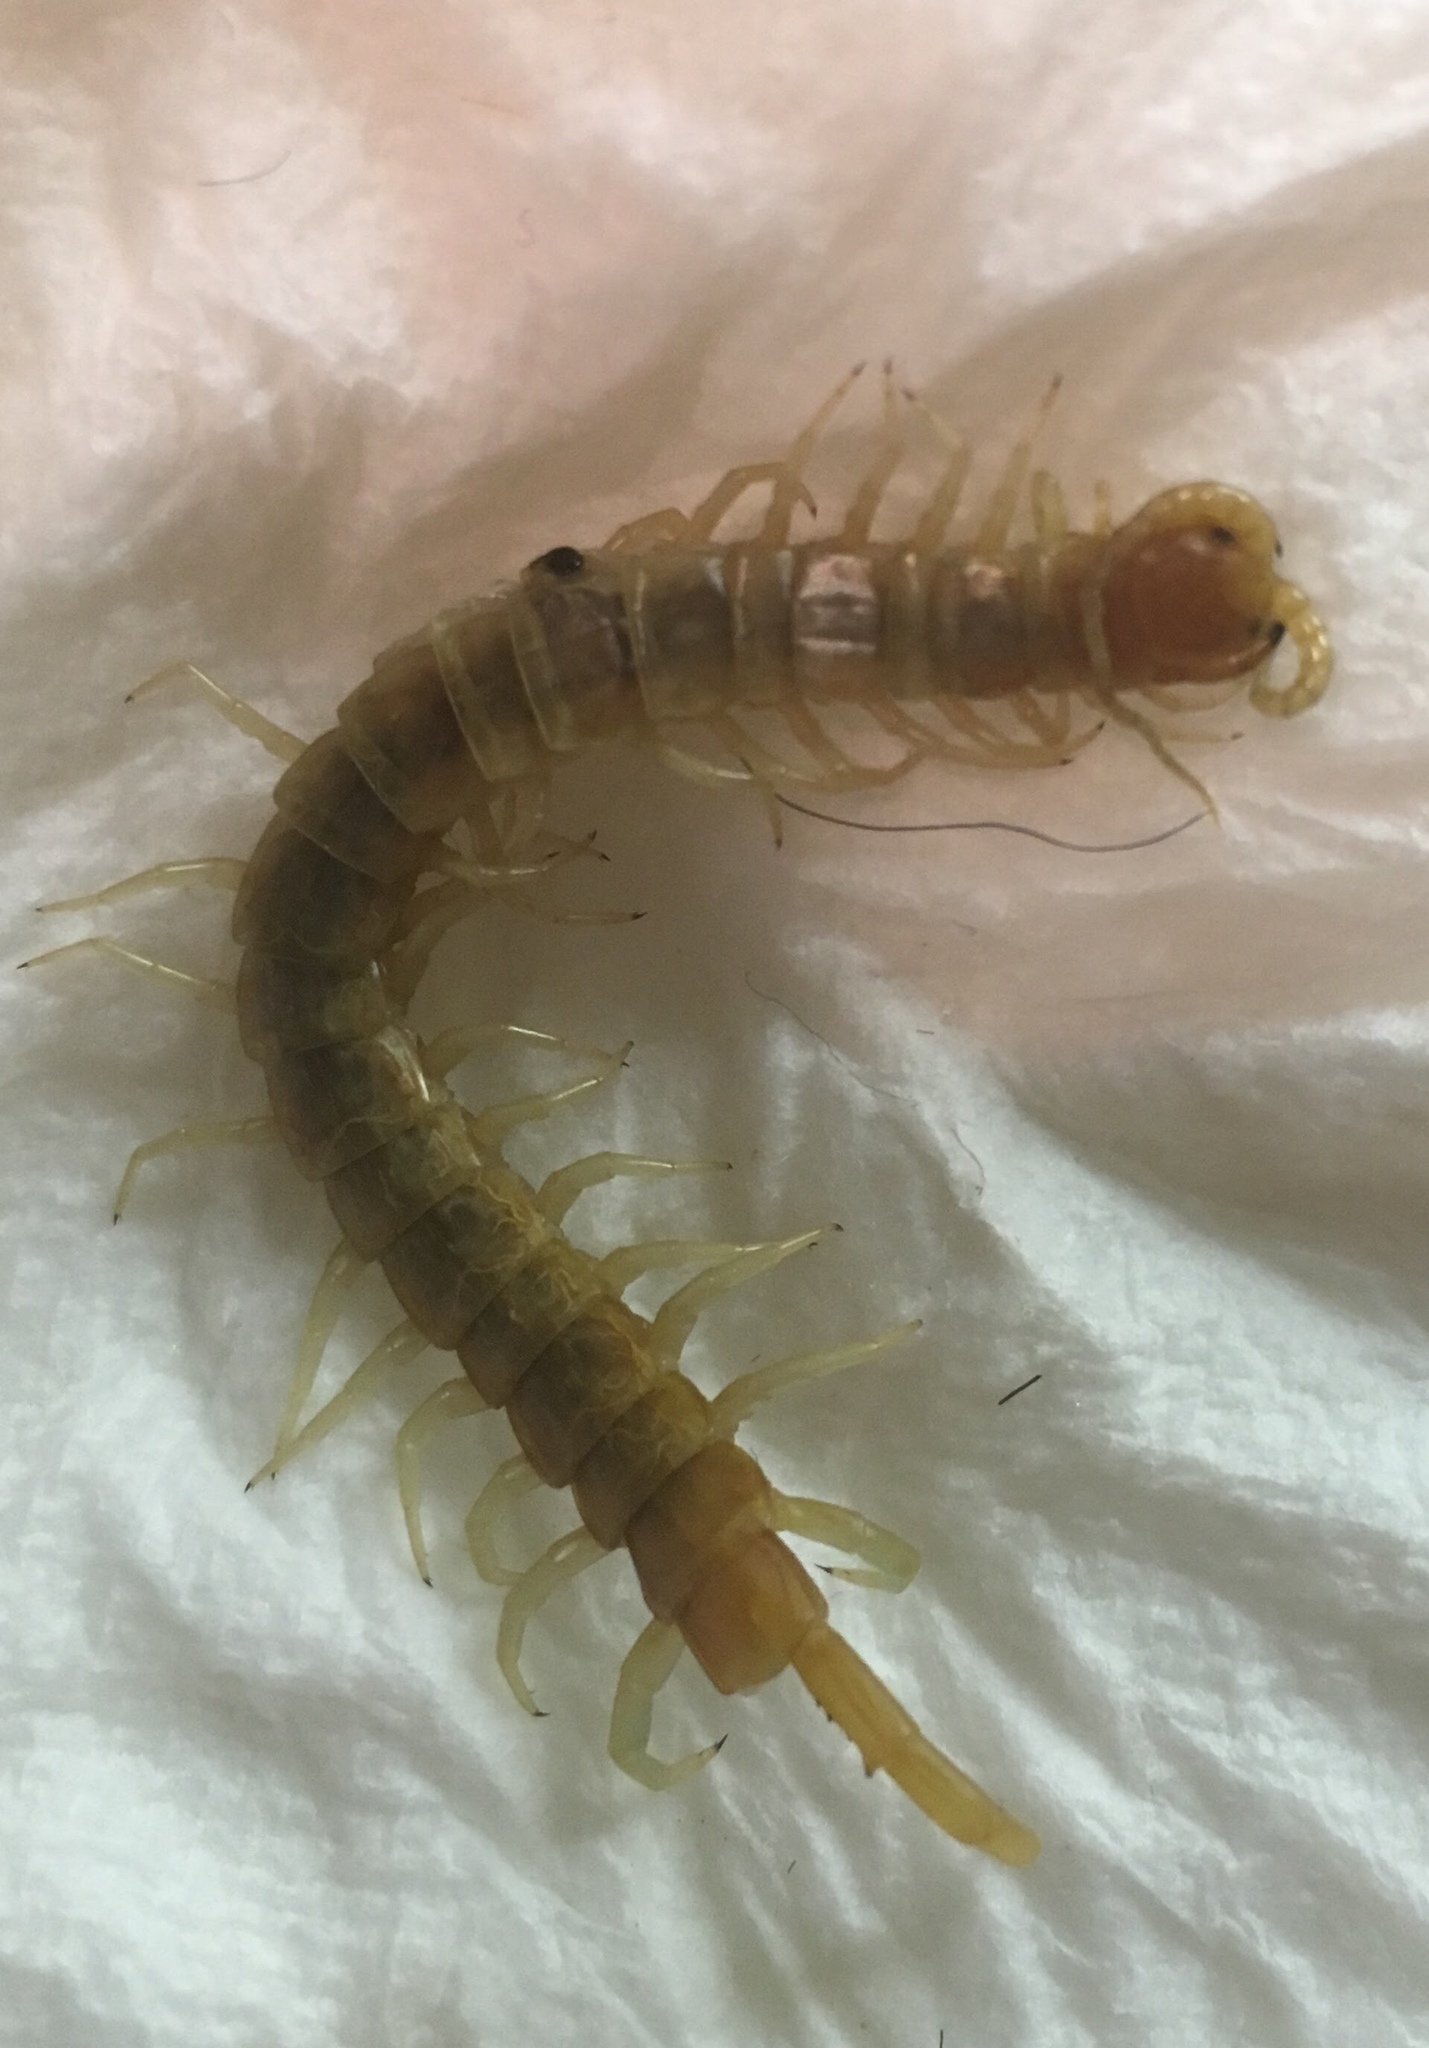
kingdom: Animalia
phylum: Arthropoda
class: Chilopoda
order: Scolopendromorpha
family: Scolopendridae
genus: Scolopendra
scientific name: Scolopendra polymorpha
